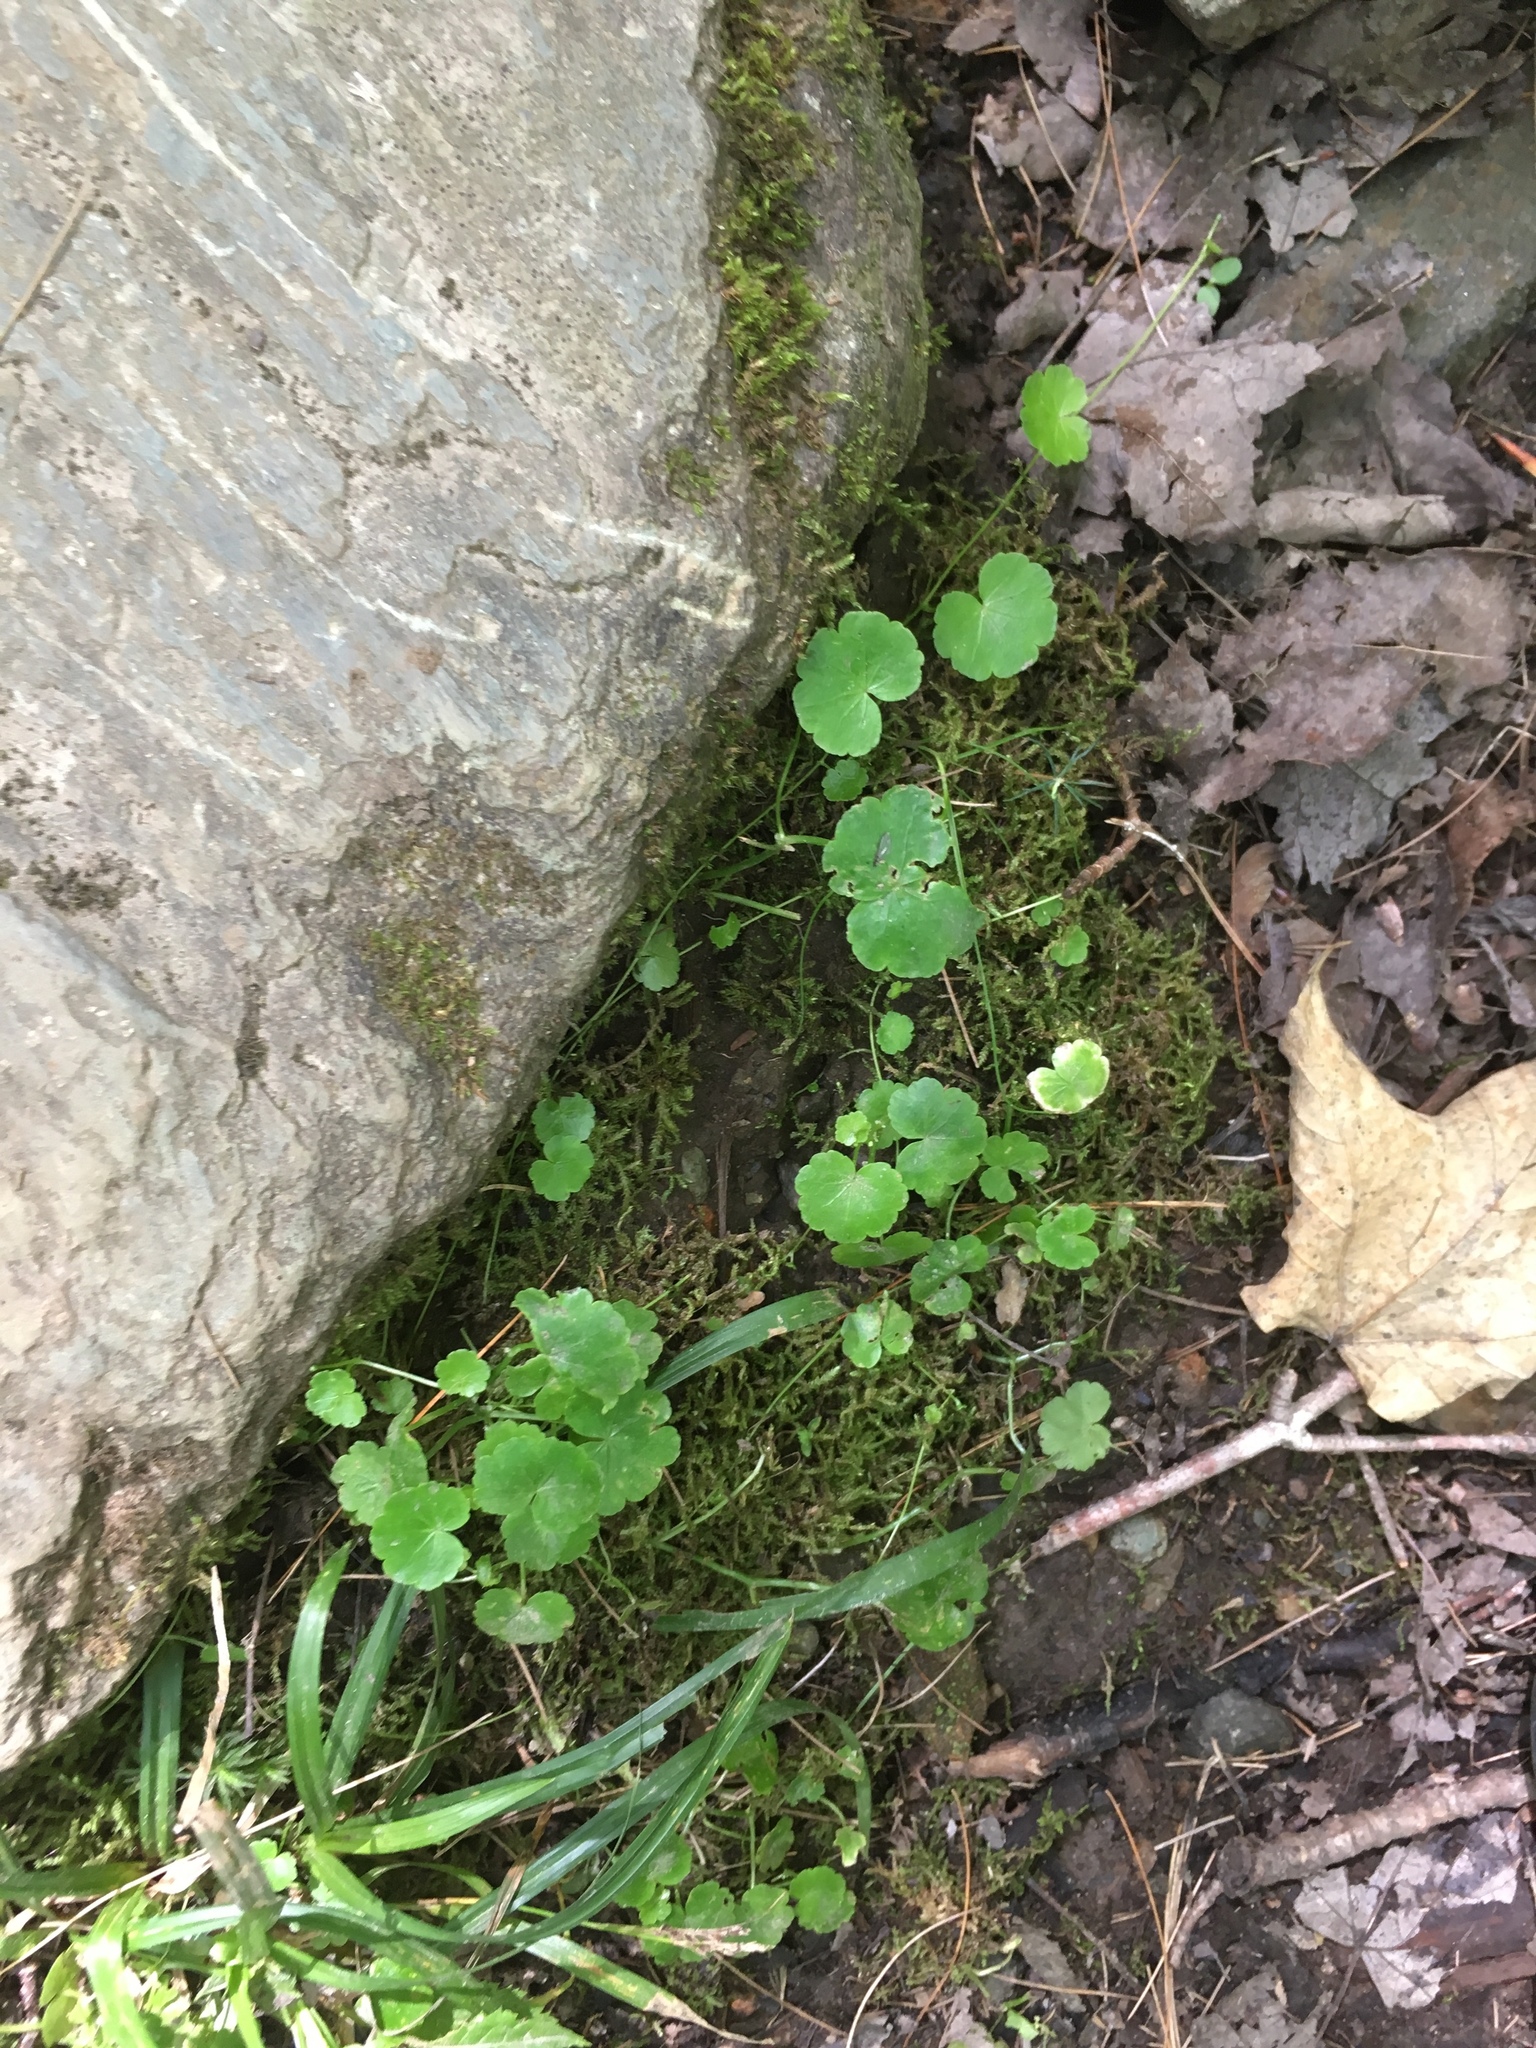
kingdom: Plantae
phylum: Tracheophyta
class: Magnoliopsida
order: Apiales
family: Araliaceae
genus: Hydrocotyle
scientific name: Hydrocotyle americana
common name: American water-pennywort
